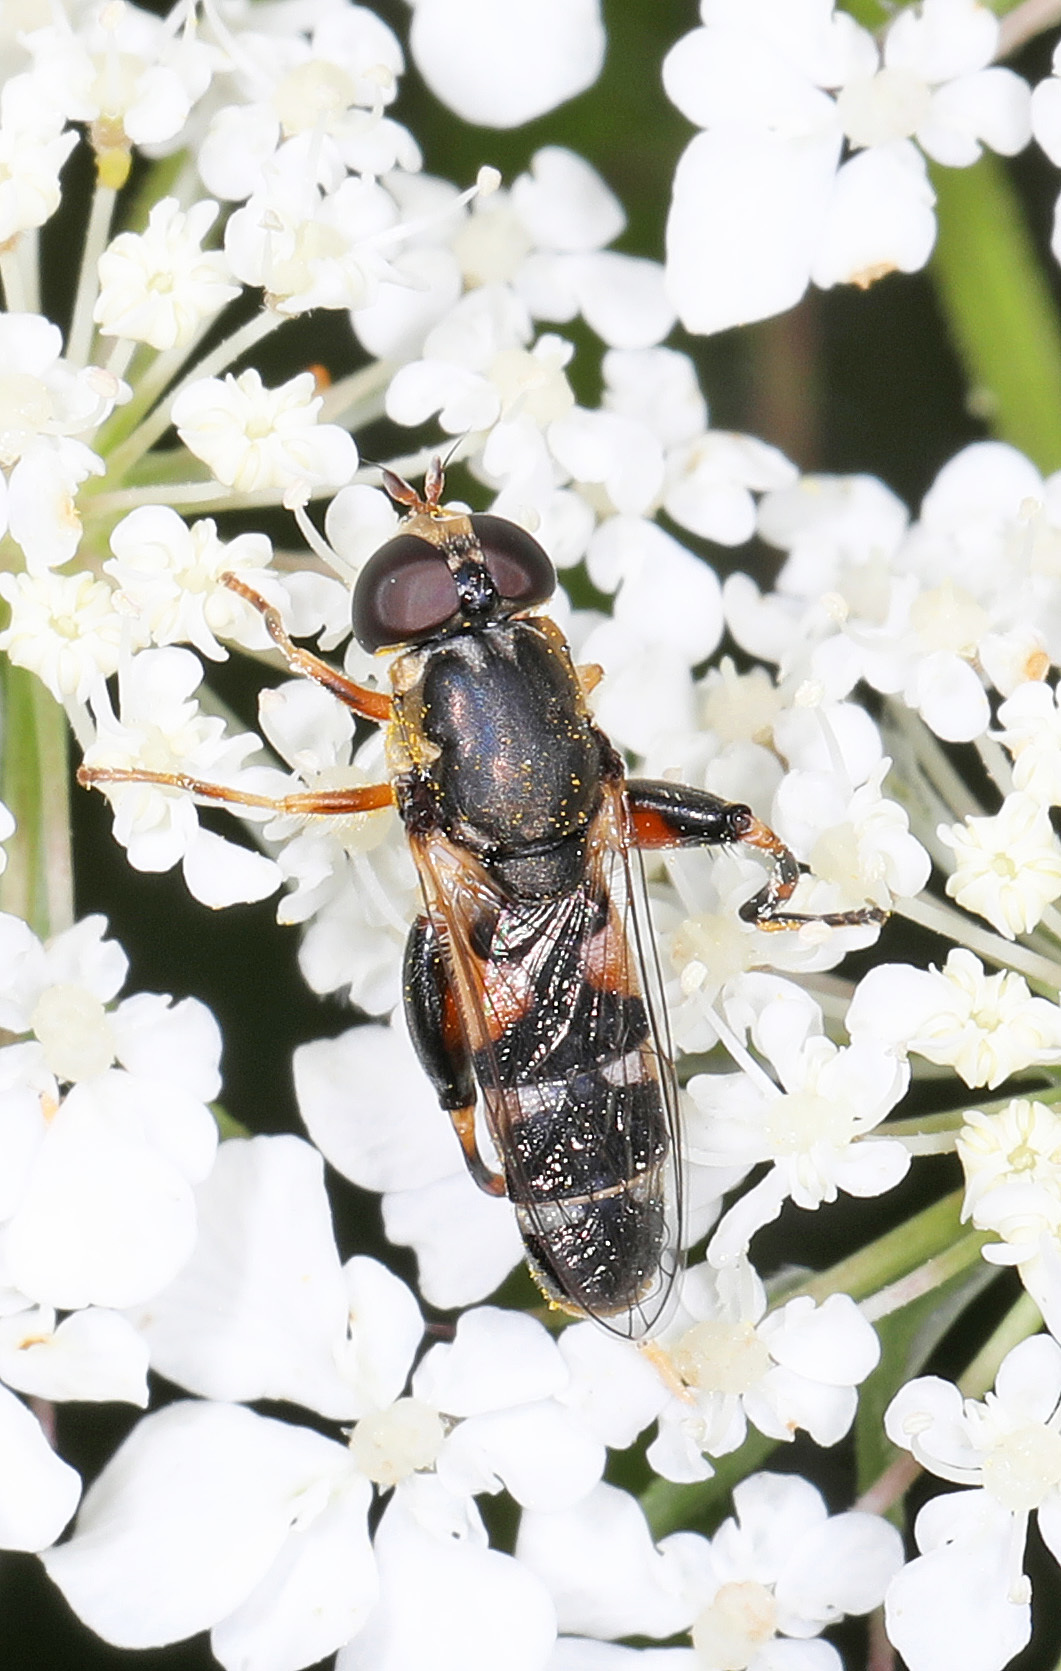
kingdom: Animalia
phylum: Arthropoda
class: Insecta
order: Diptera
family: Syrphidae
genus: Syritta
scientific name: Syritta pipiens
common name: Hover fly
